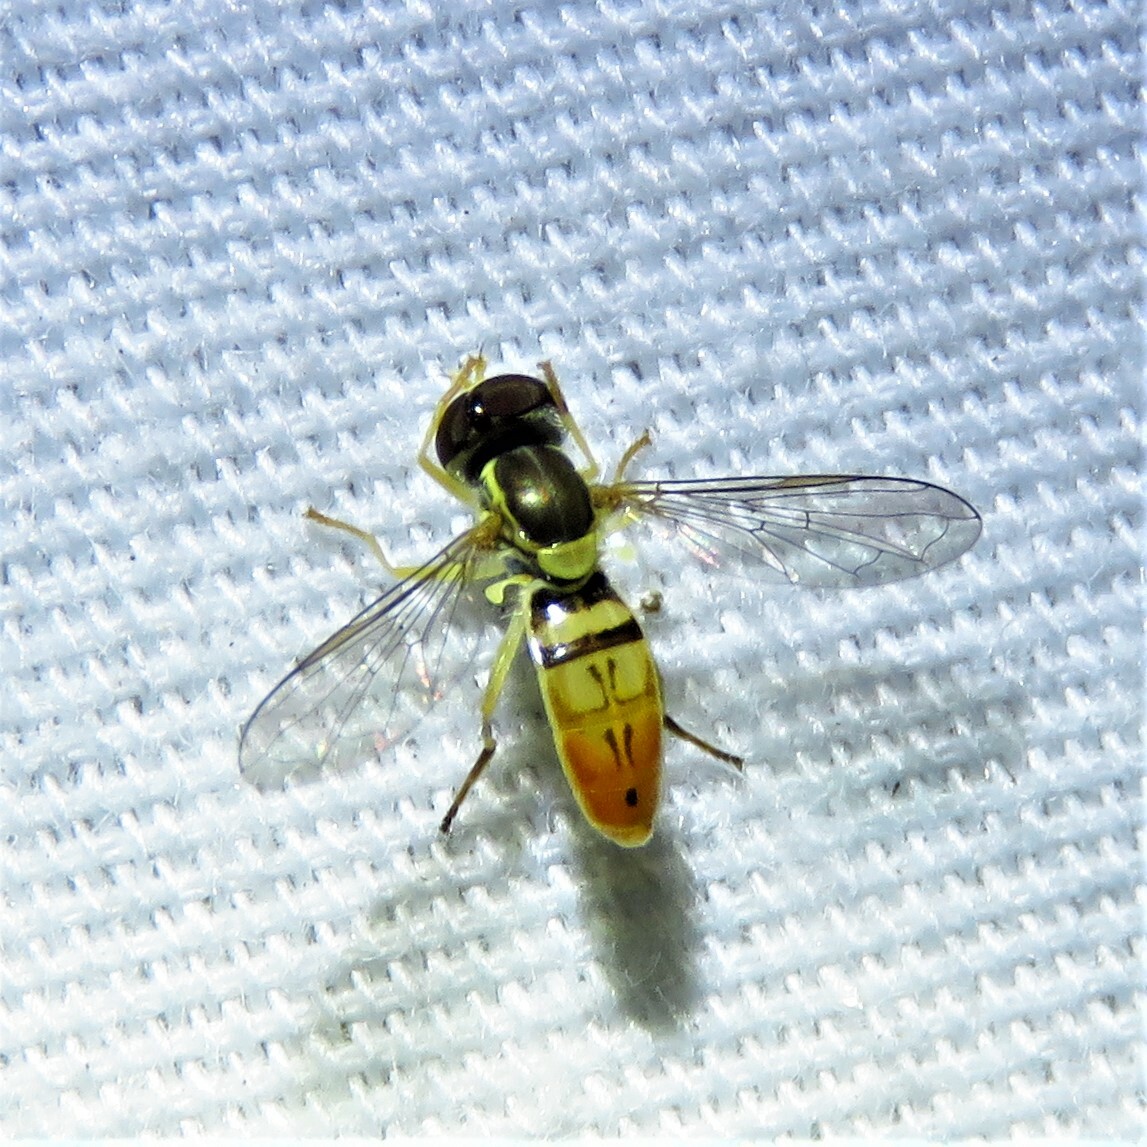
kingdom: Animalia
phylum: Arthropoda
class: Insecta
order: Diptera
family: Syrphidae
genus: Toxomerus
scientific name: Toxomerus marginatus
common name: Syrphid fly
